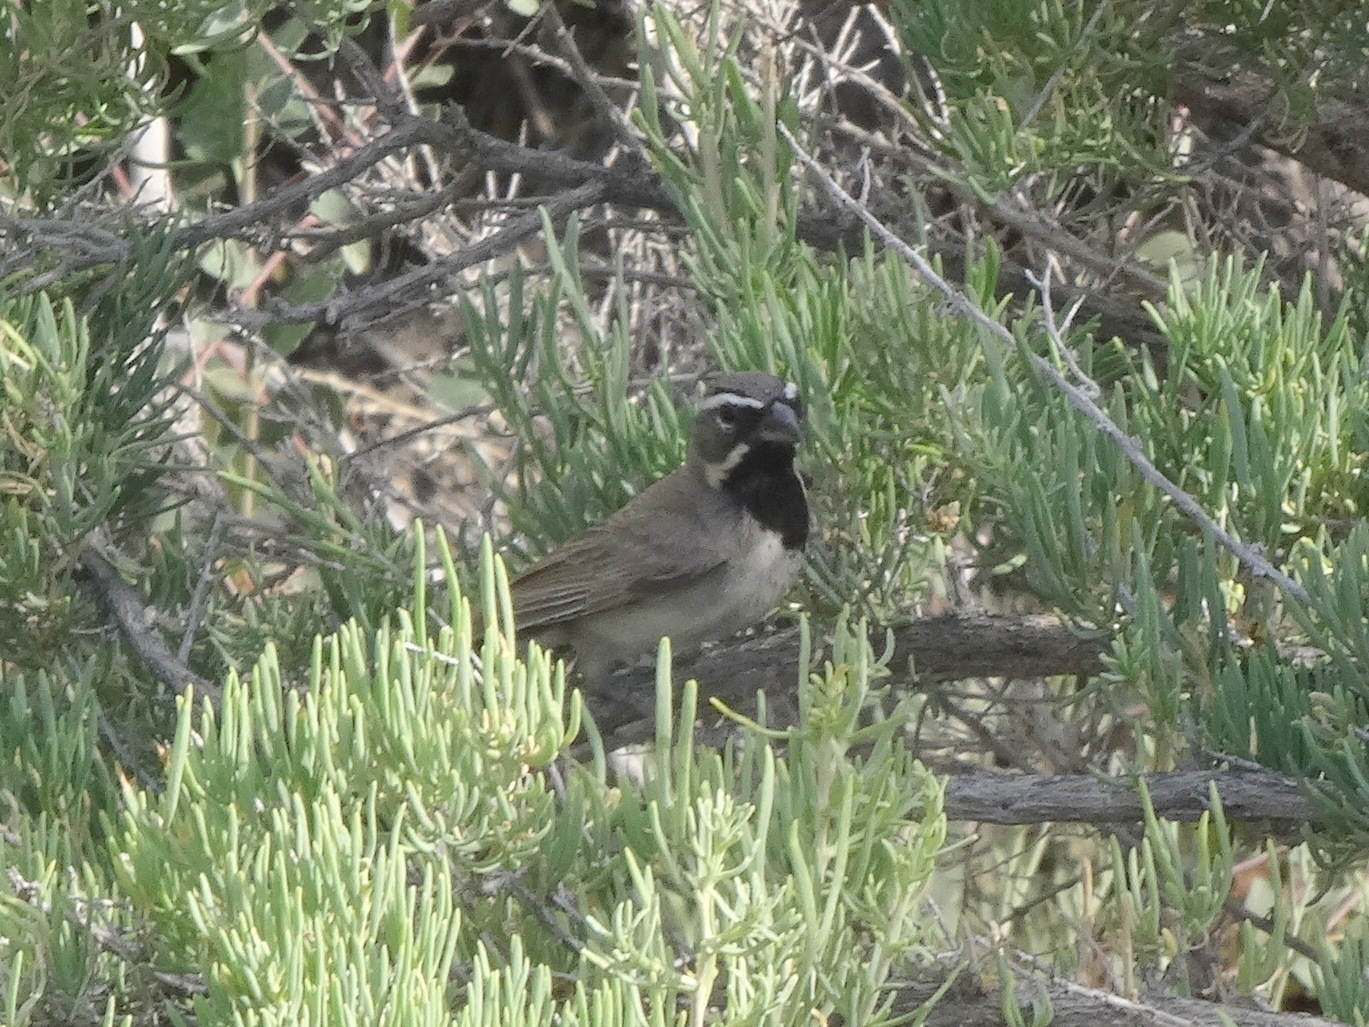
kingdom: Animalia
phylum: Chordata
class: Aves
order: Passeriformes
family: Passerellidae
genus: Amphispiza
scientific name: Amphispiza bilineata
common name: Black-throated sparrow
